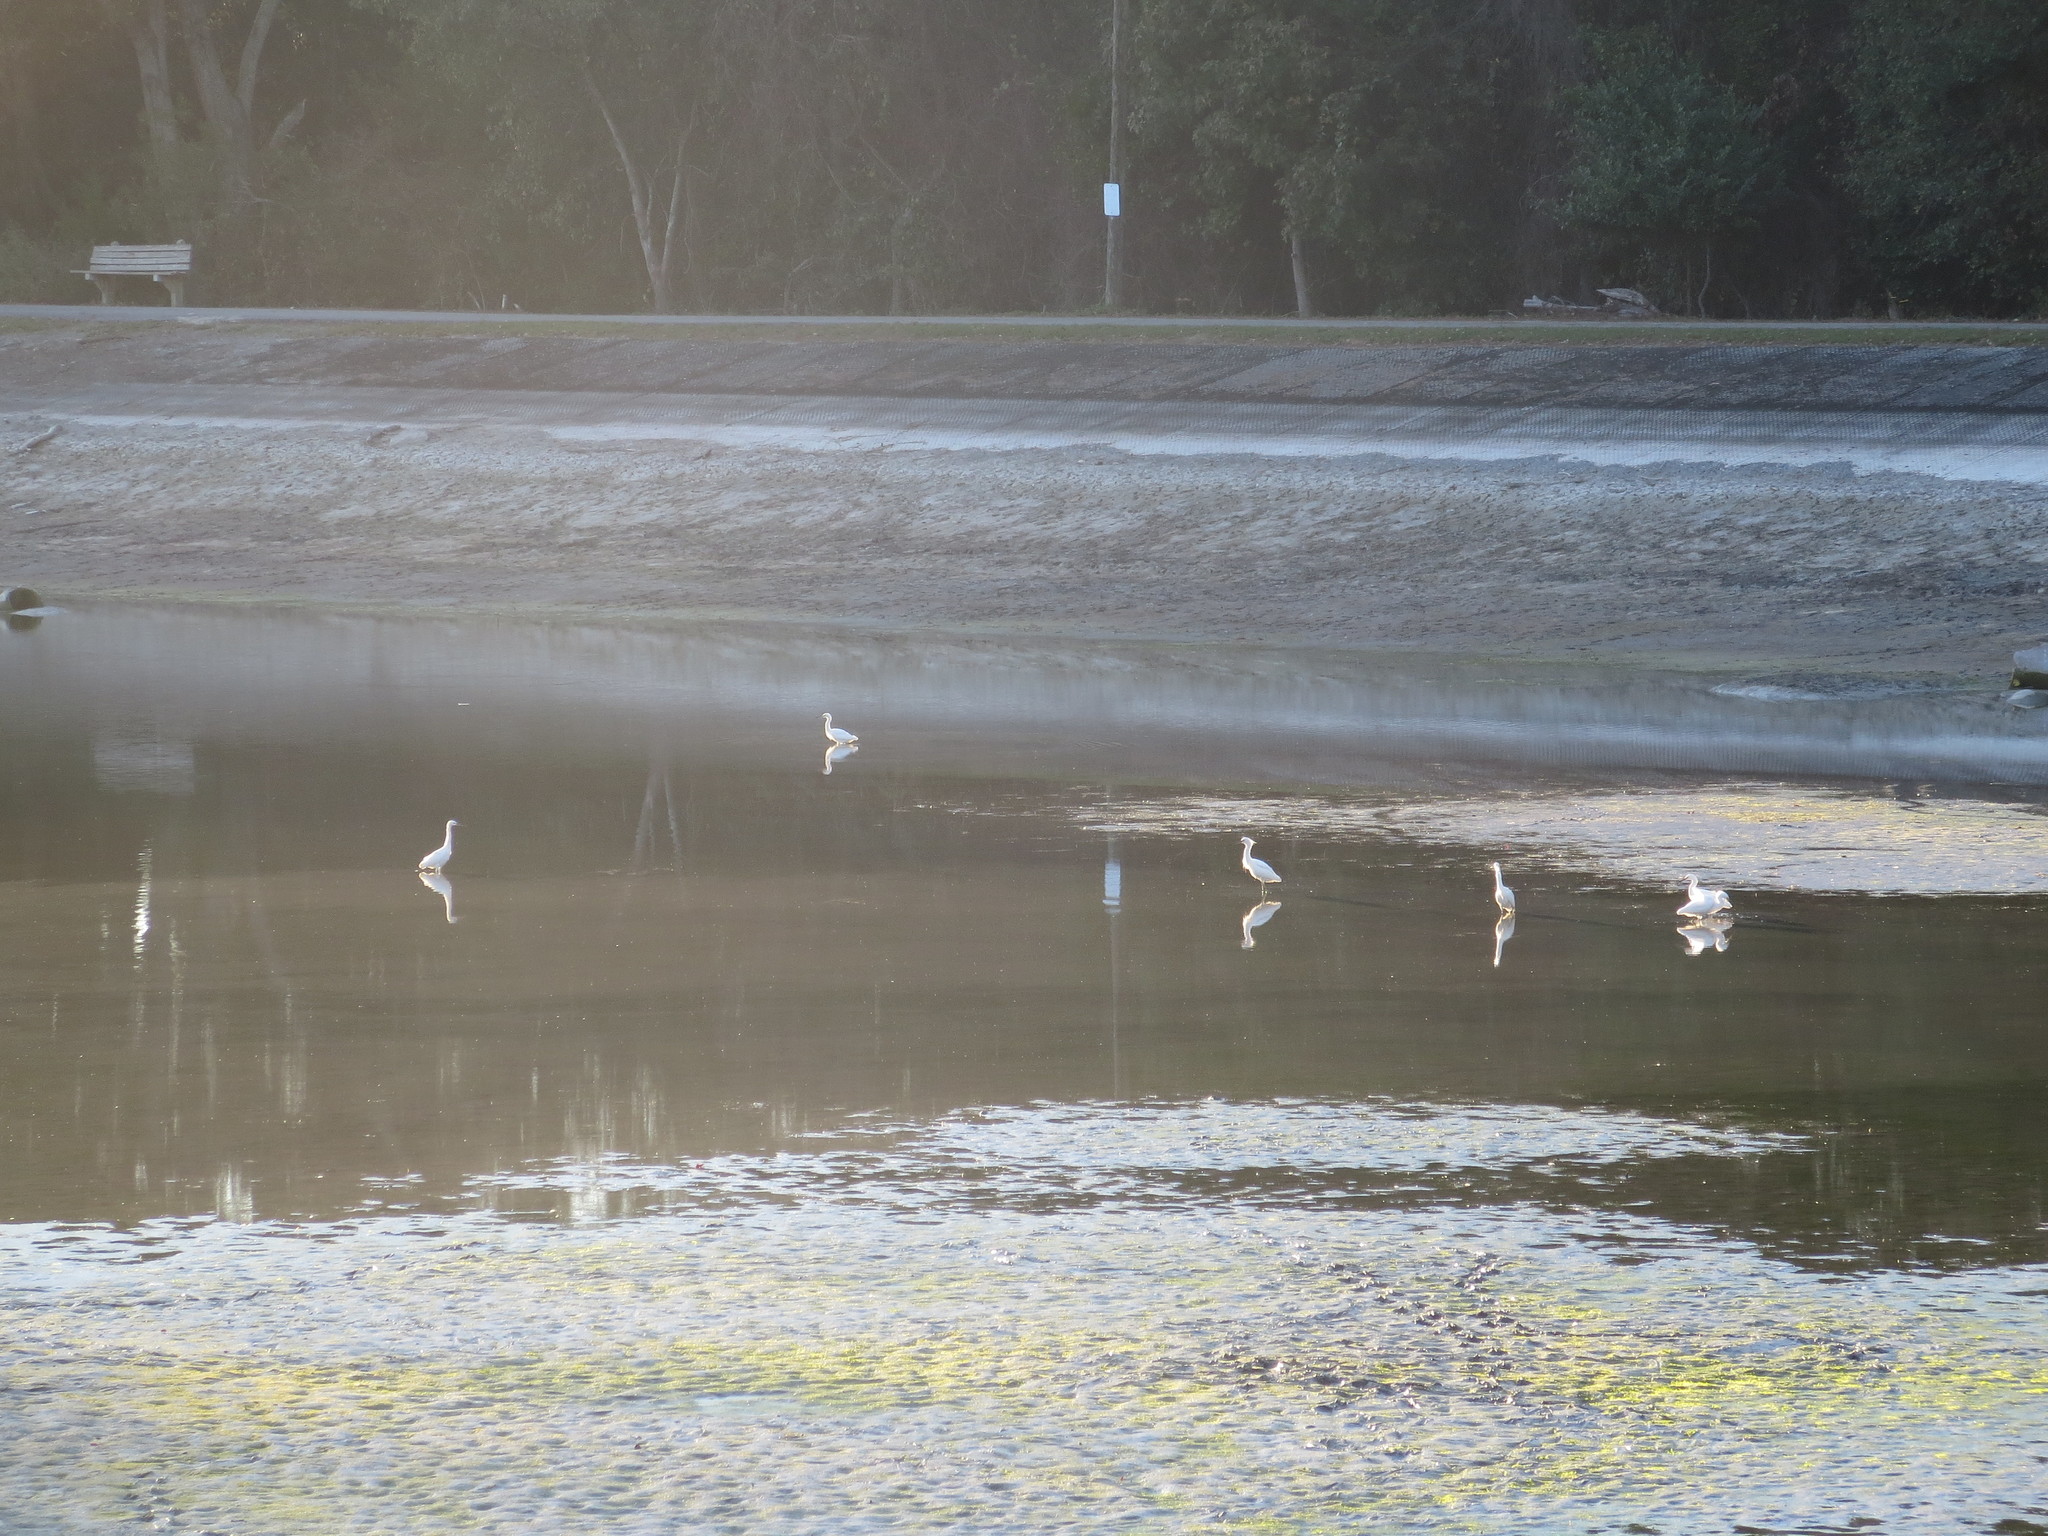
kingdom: Animalia
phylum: Chordata
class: Aves
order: Pelecaniformes
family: Ardeidae
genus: Egretta
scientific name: Egretta thula
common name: Snowy egret
